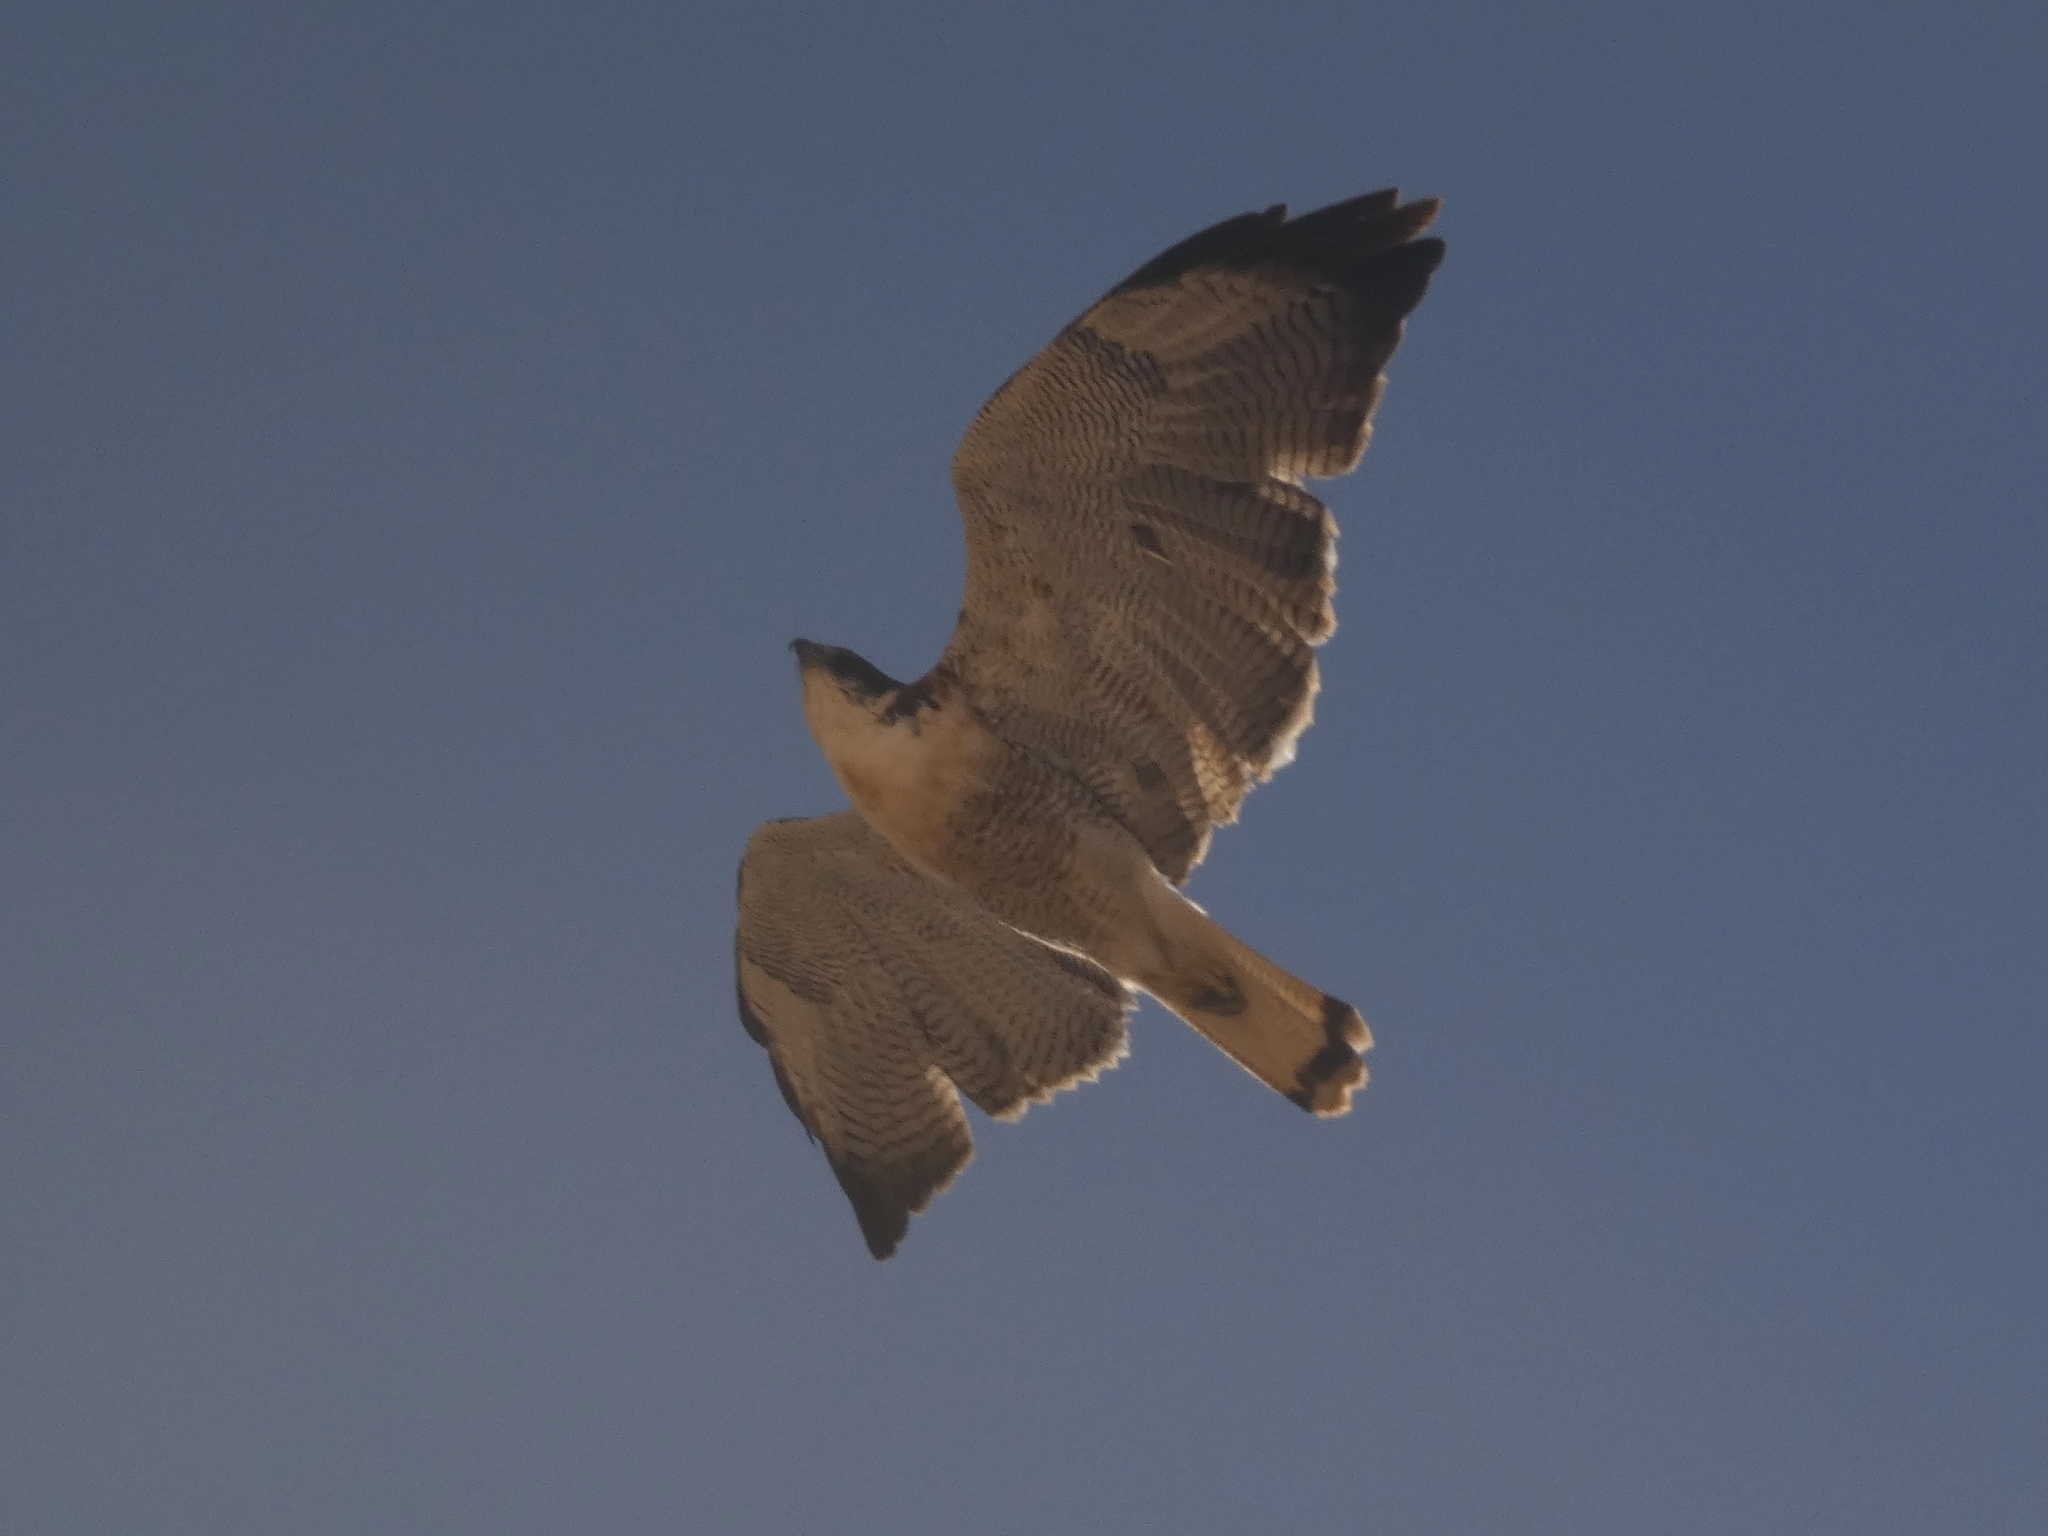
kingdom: Animalia
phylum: Chordata
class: Aves
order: Accipitriformes
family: Accipitridae
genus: Buteo
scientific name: Buteo polyosoma
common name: Variable hawk
